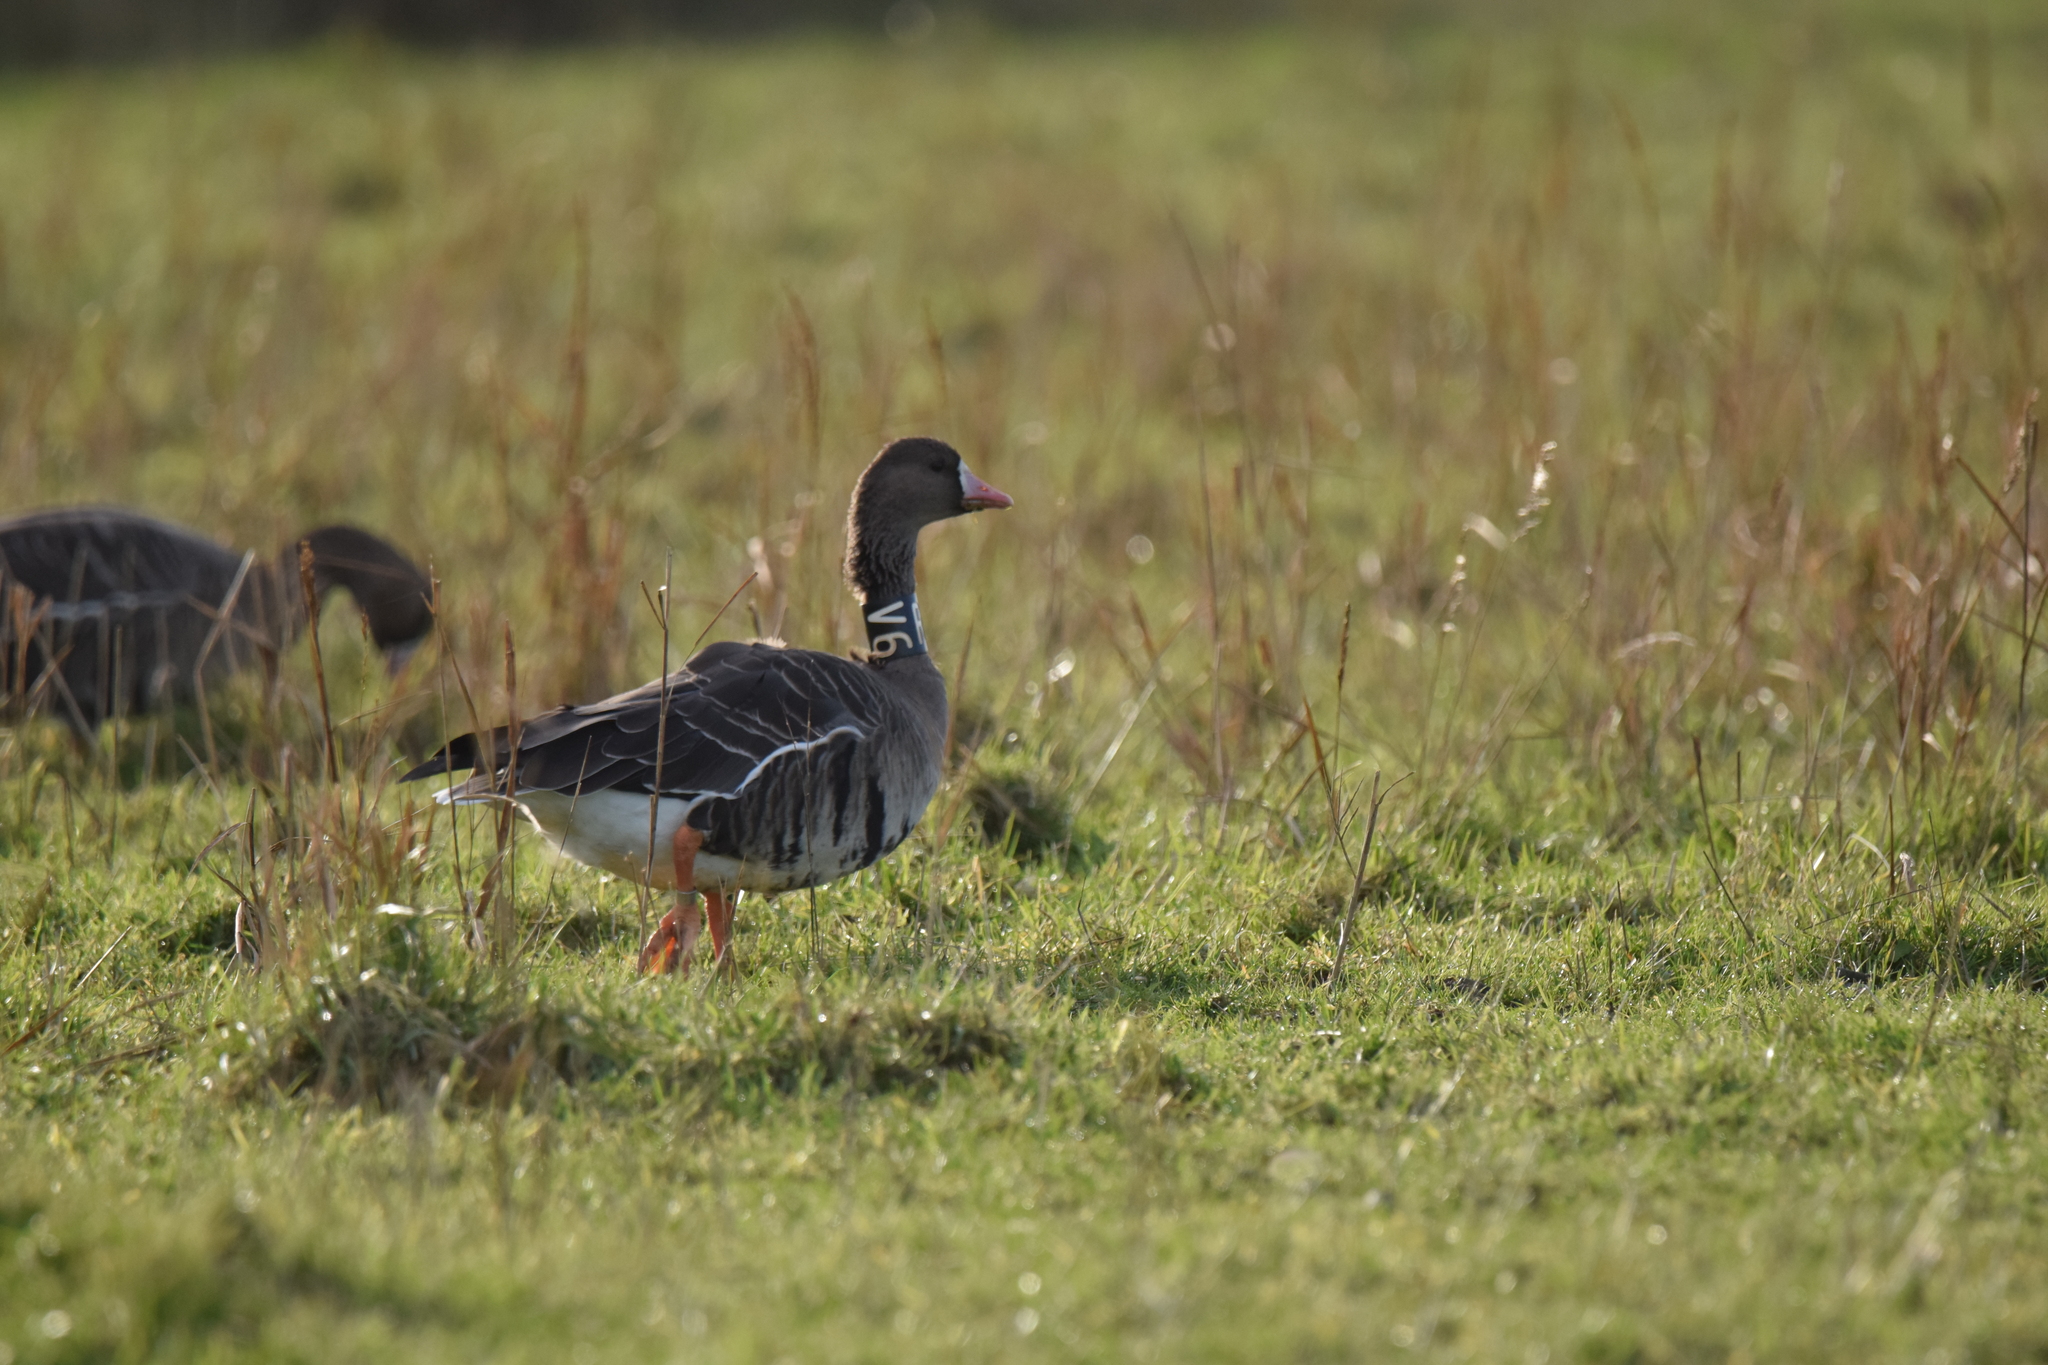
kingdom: Animalia
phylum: Chordata
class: Aves
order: Anseriformes
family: Anatidae
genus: Anser
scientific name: Anser albifrons
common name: Greater white-fronted goose
